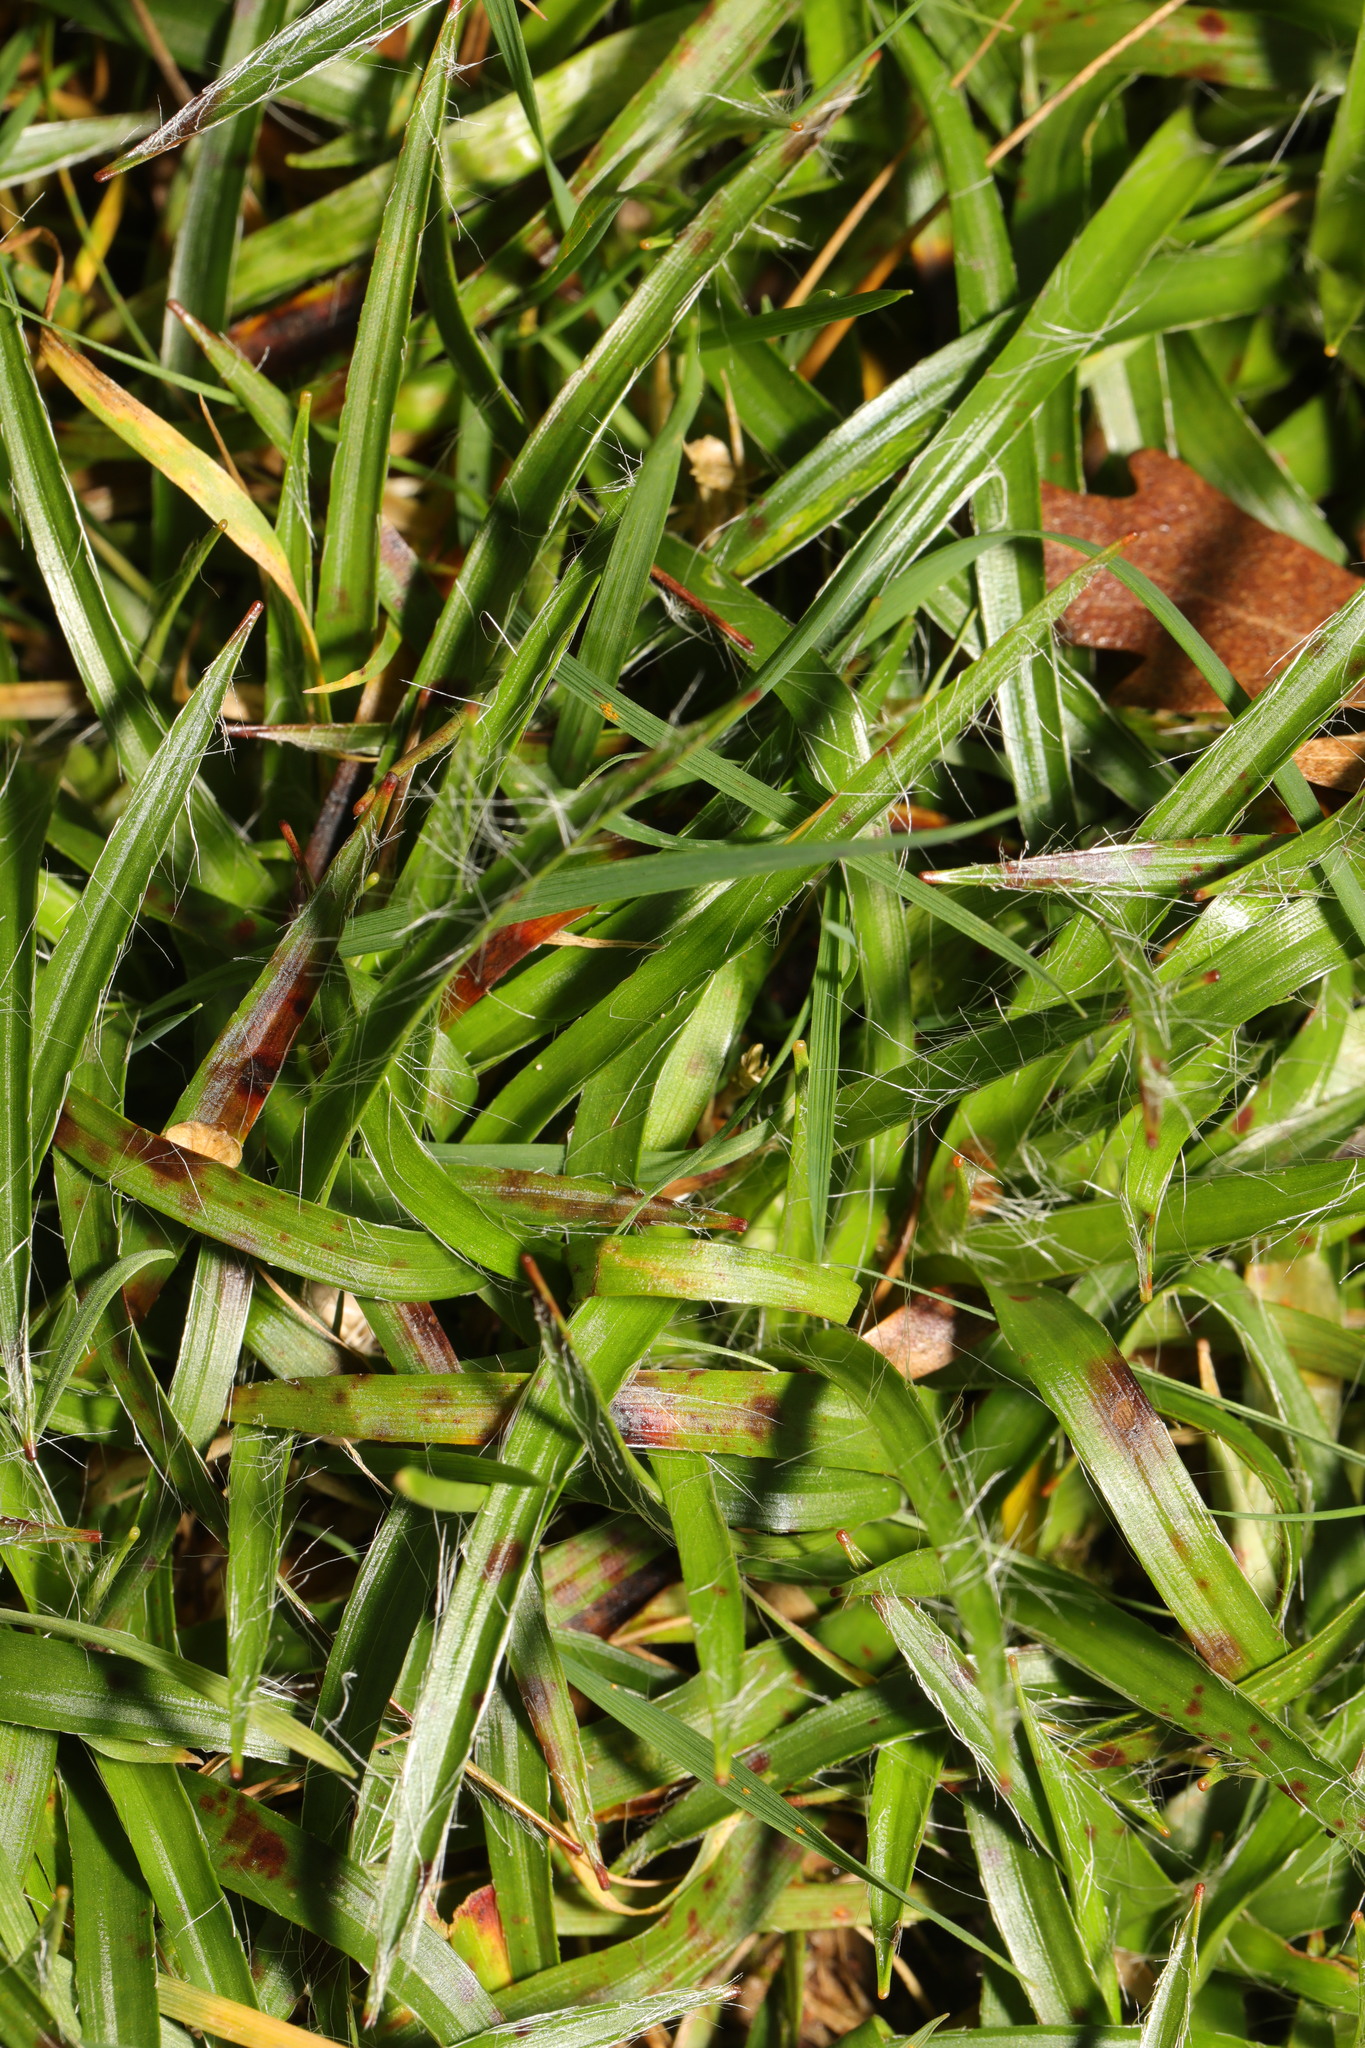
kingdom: Plantae
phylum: Tracheophyta
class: Liliopsida
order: Poales
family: Juncaceae
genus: Luzula
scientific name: Luzula campestris
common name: Field wood-rush
